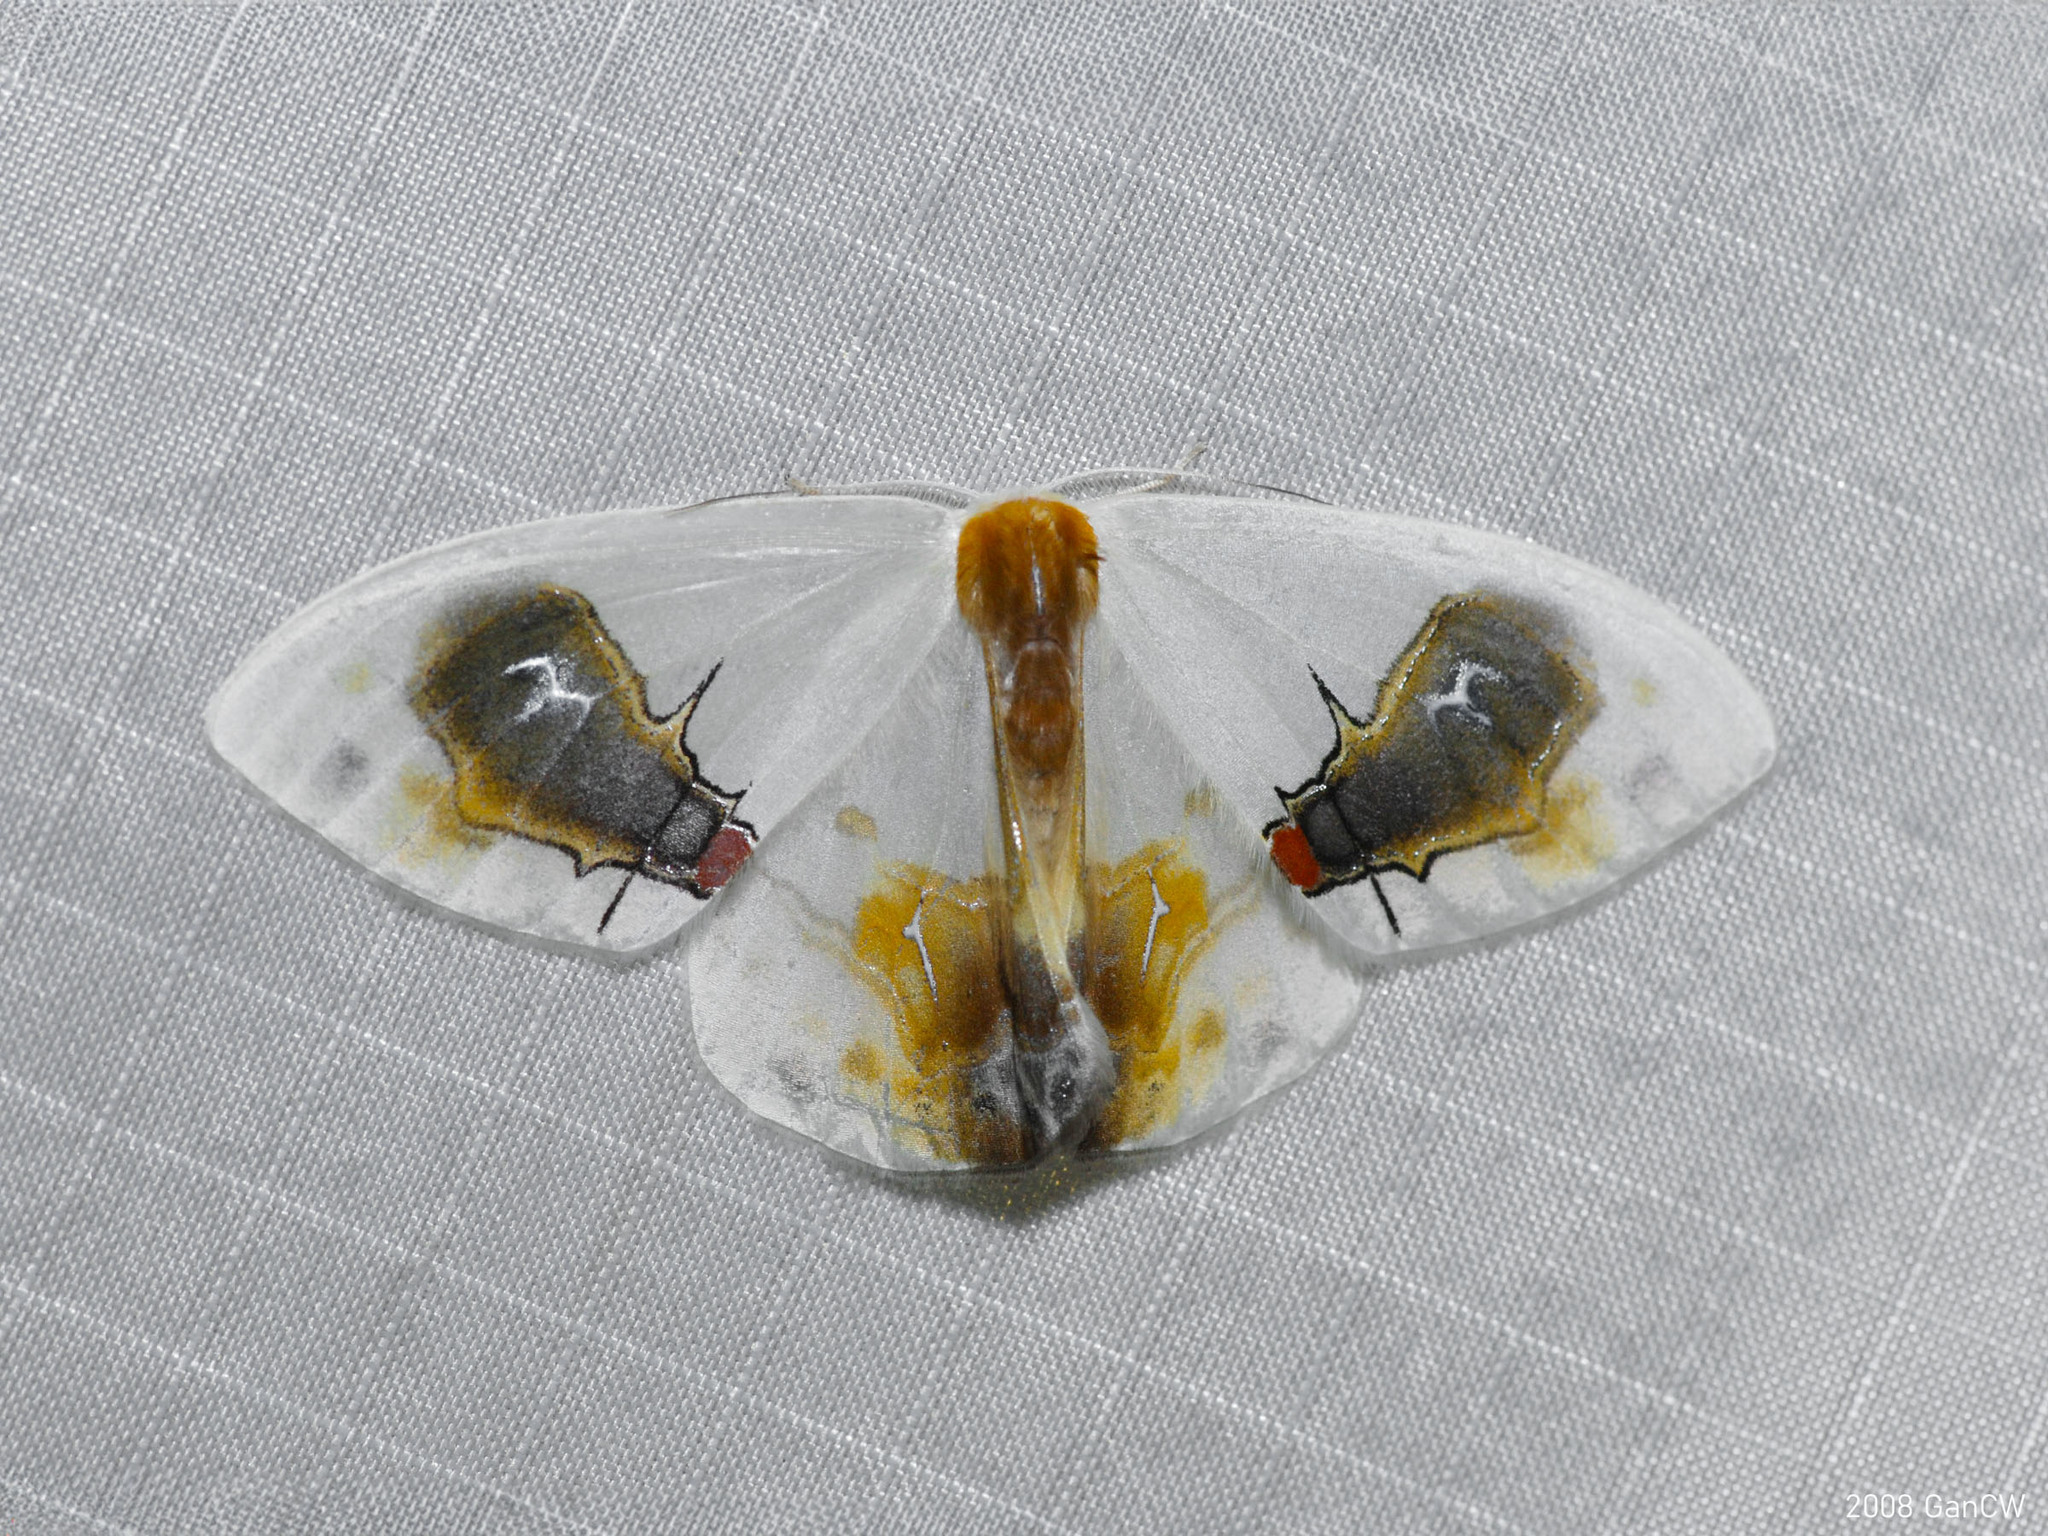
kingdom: Animalia
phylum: Arthropoda
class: Insecta
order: Lepidoptera
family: Drepanidae
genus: Macrocilix
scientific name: Macrocilix maia
